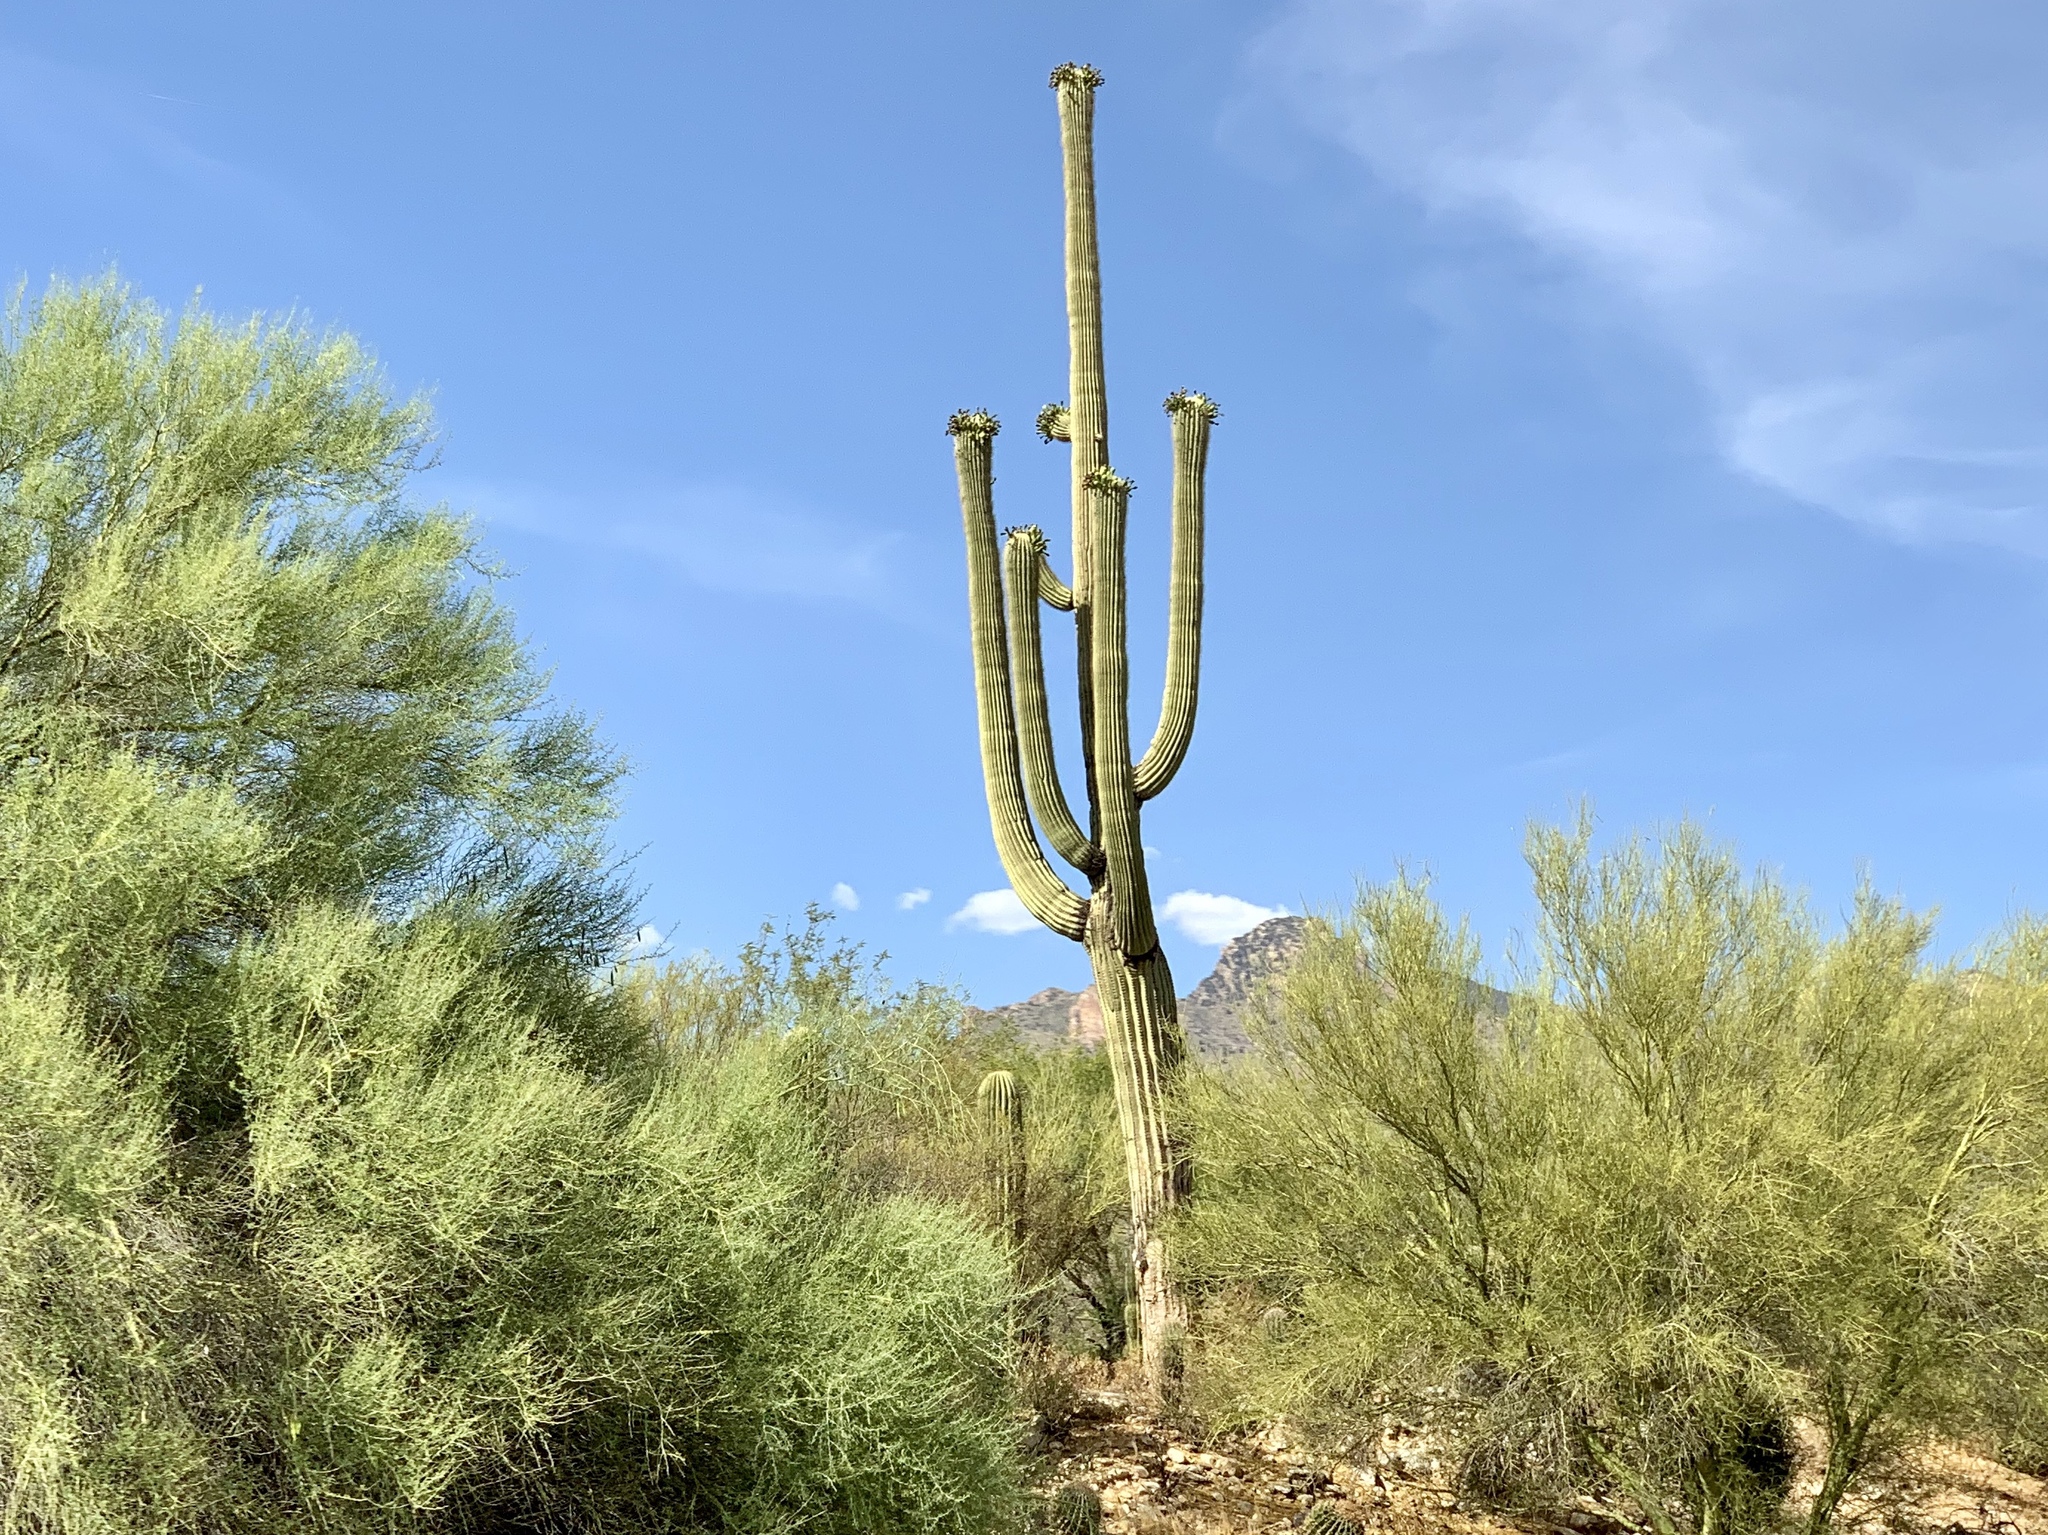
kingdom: Plantae
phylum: Tracheophyta
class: Magnoliopsida
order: Caryophyllales
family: Cactaceae
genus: Carnegiea
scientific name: Carnegiea gigantea
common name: Saguaro
